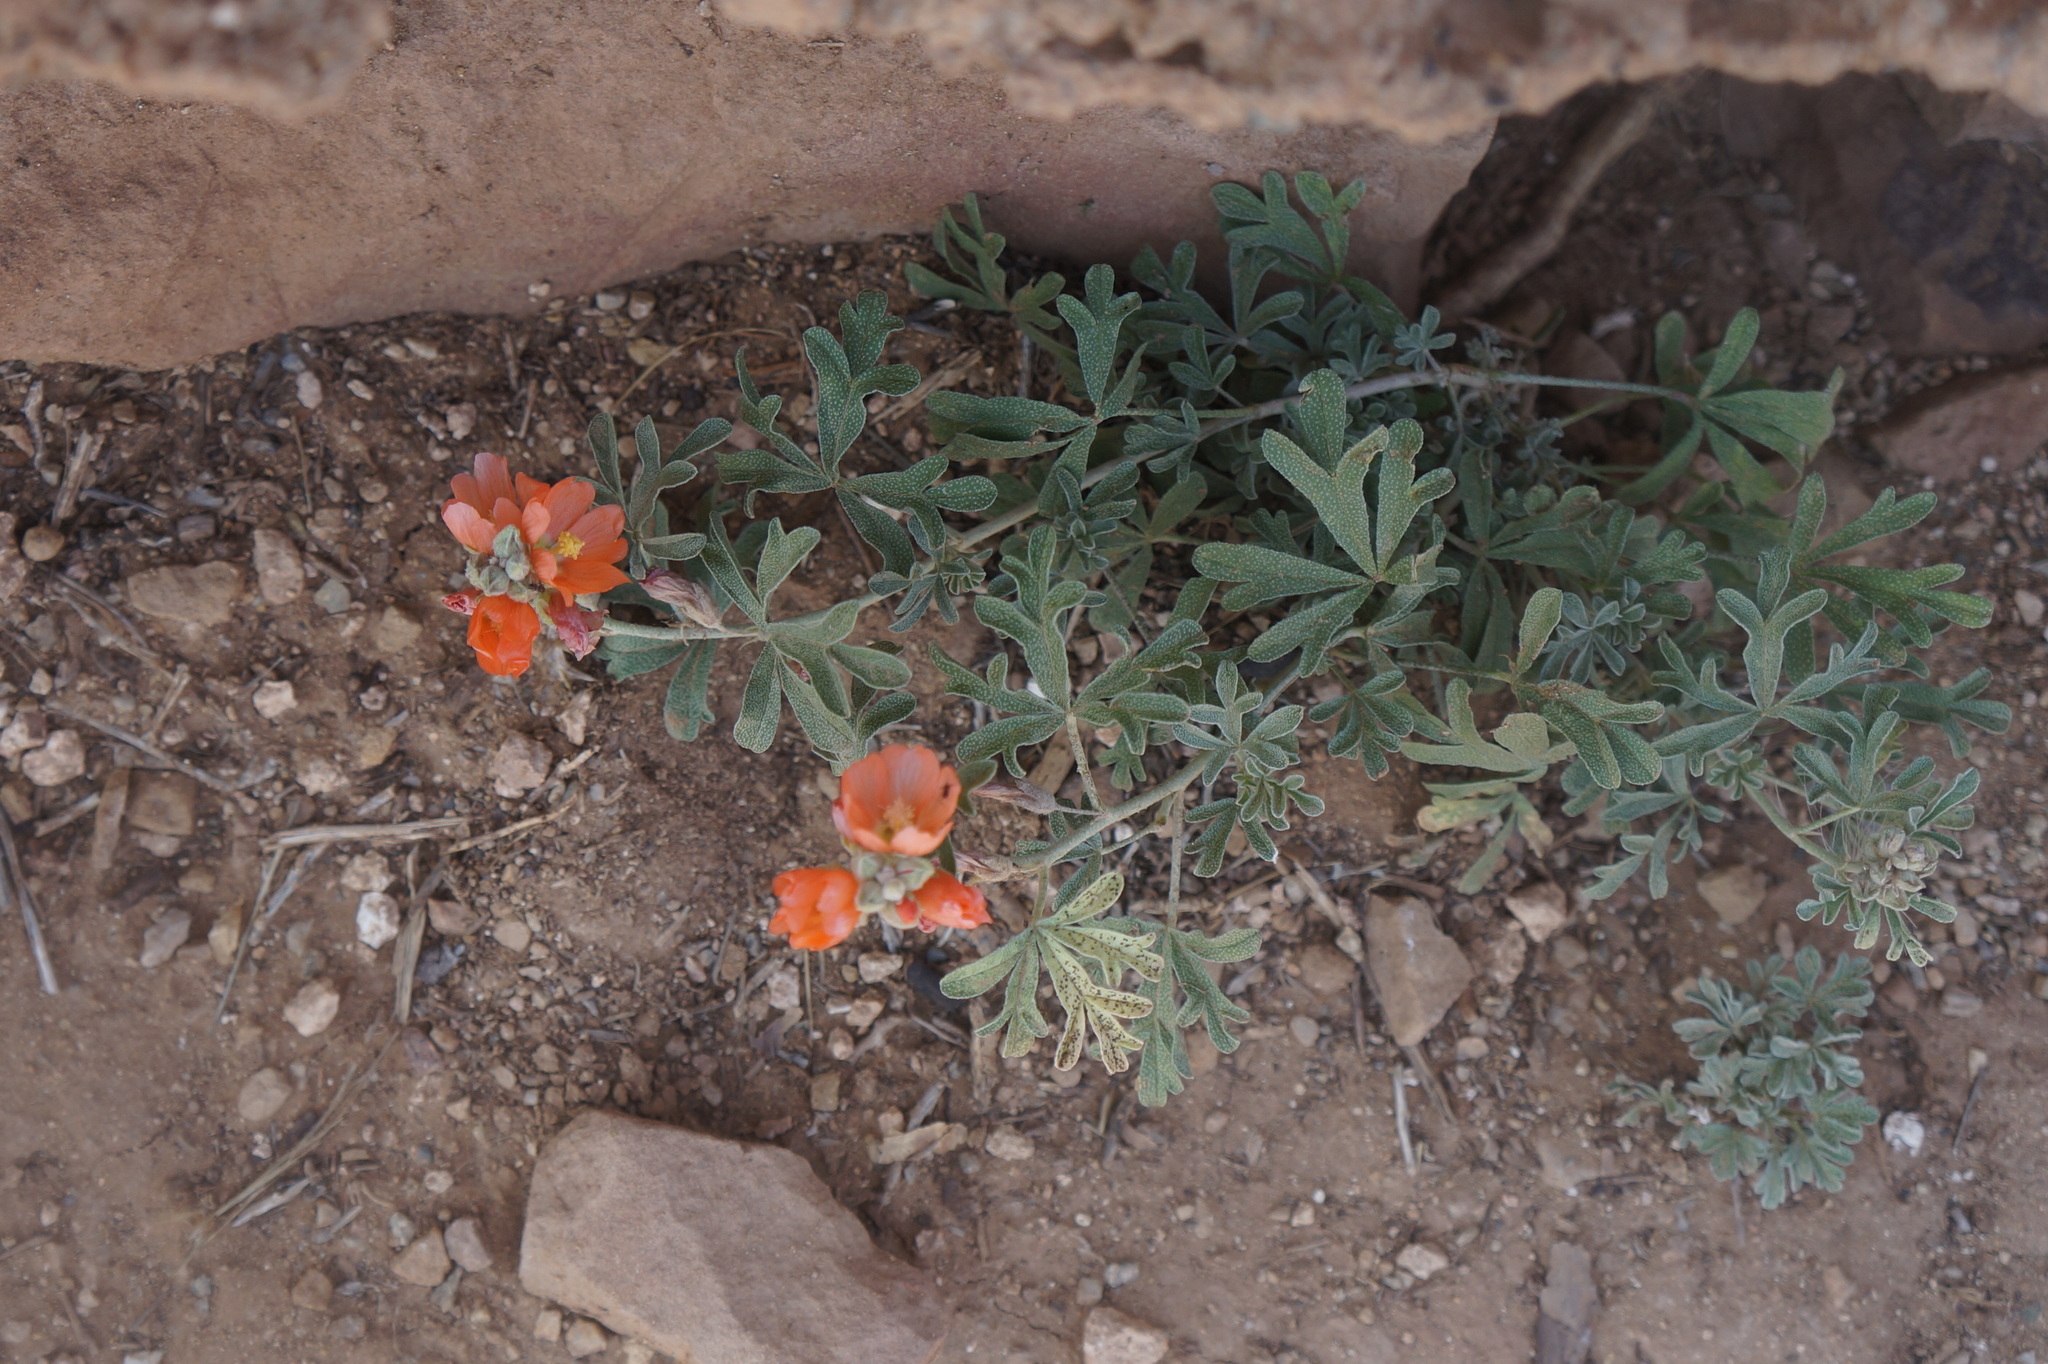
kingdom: Plantae
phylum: Tracheophyta
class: Magnoliopsida
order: Malvales
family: Malvaceae
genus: Sphaeralcea
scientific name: Sphaeralcea coccinea
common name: Moss-rose
